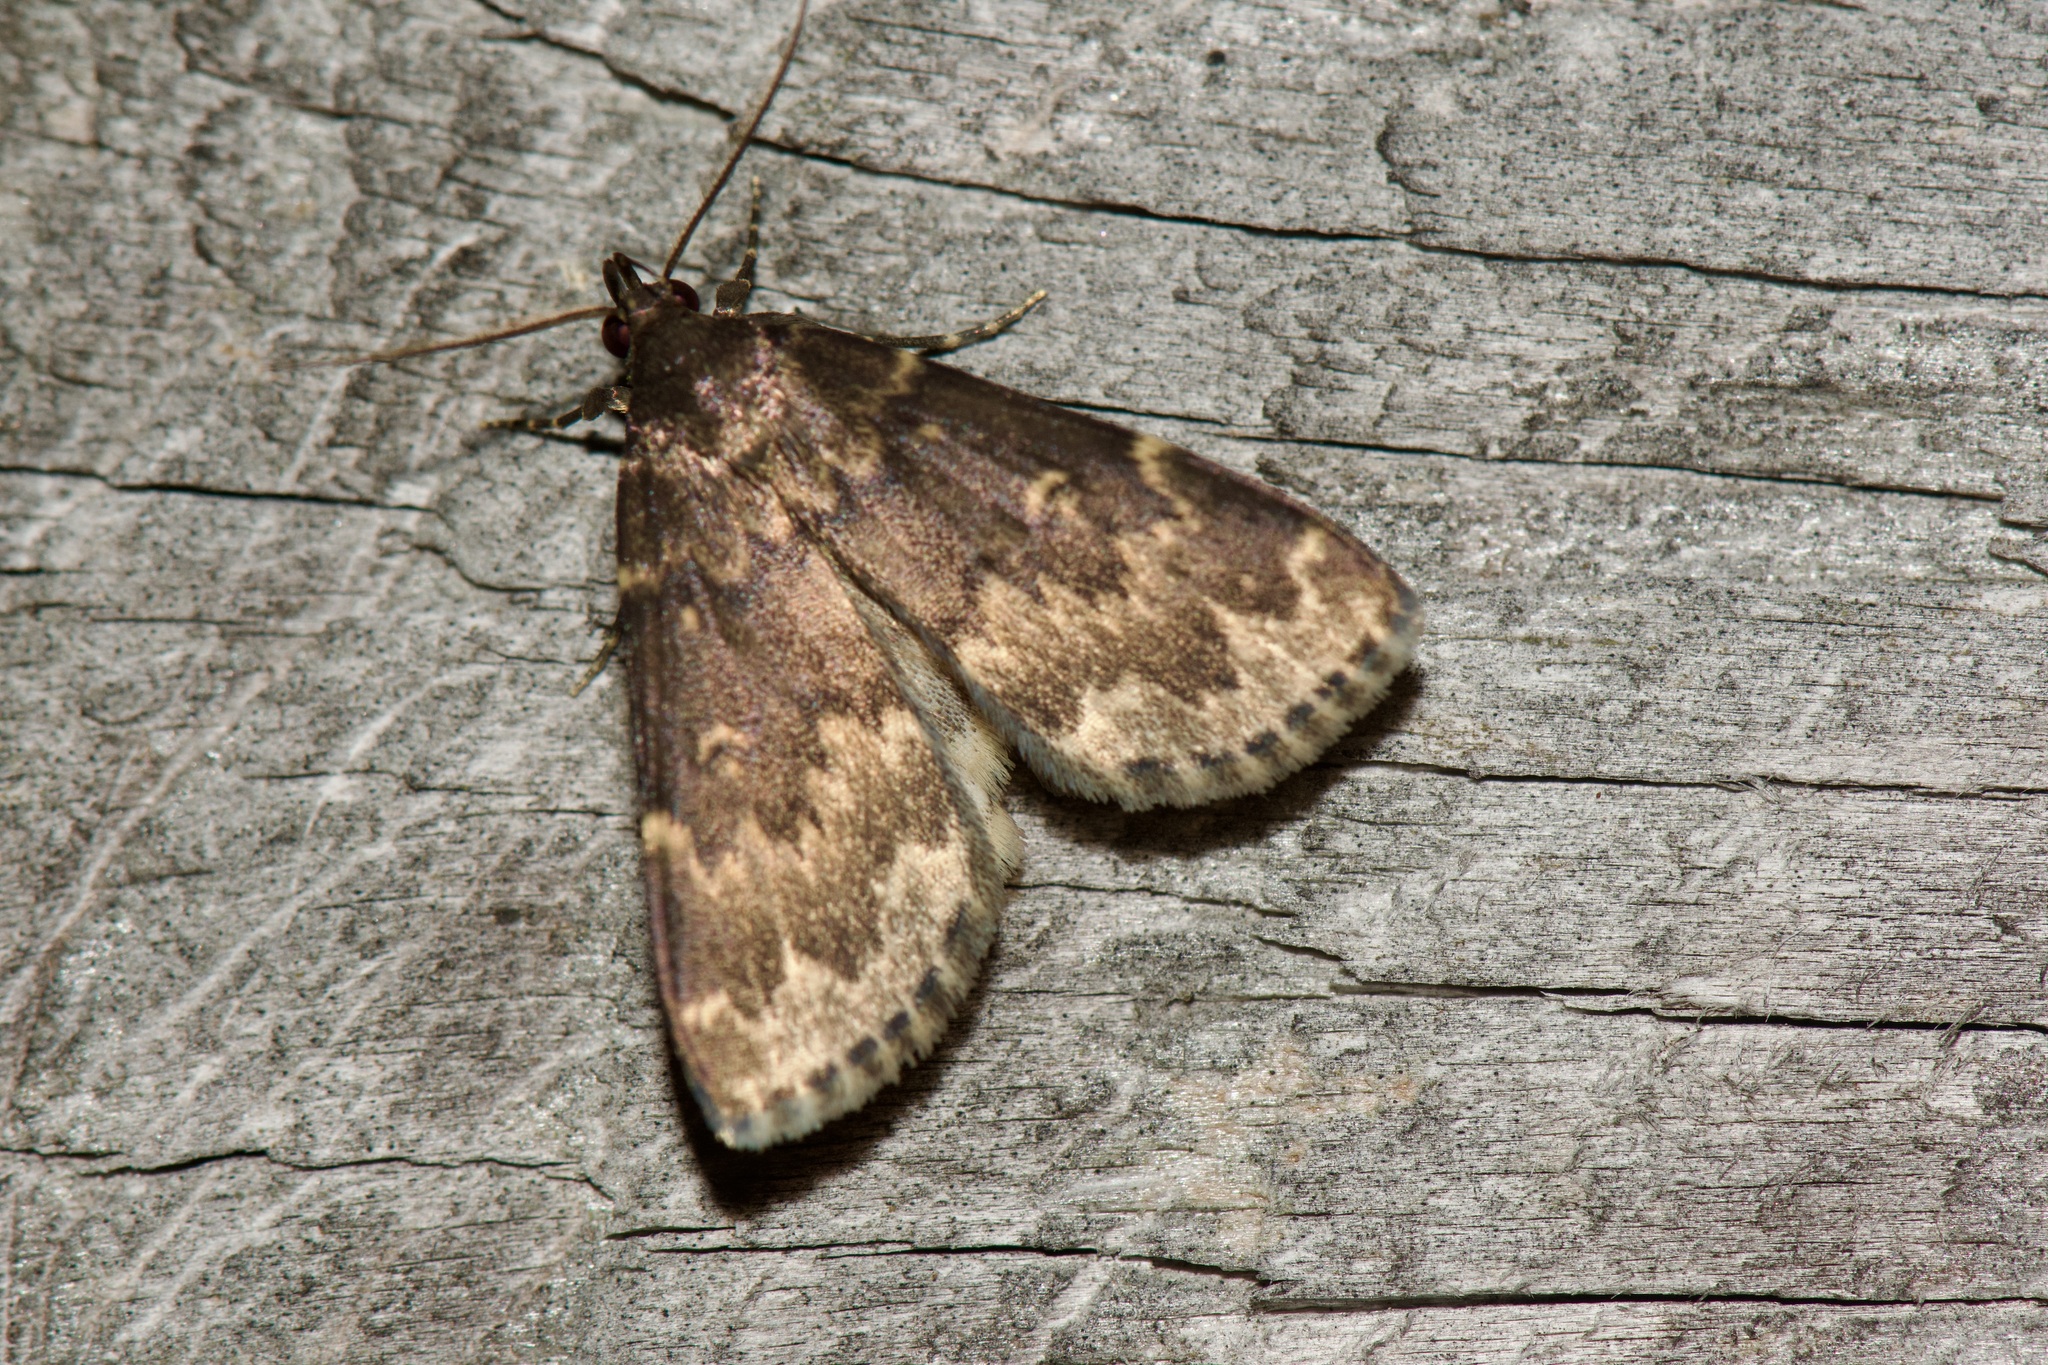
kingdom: Animalia
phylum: Arthropoda
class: Insecta
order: Lepidoptera
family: Erebidae
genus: Idia
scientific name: Idia lubricalis
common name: Twin-striped tabby
